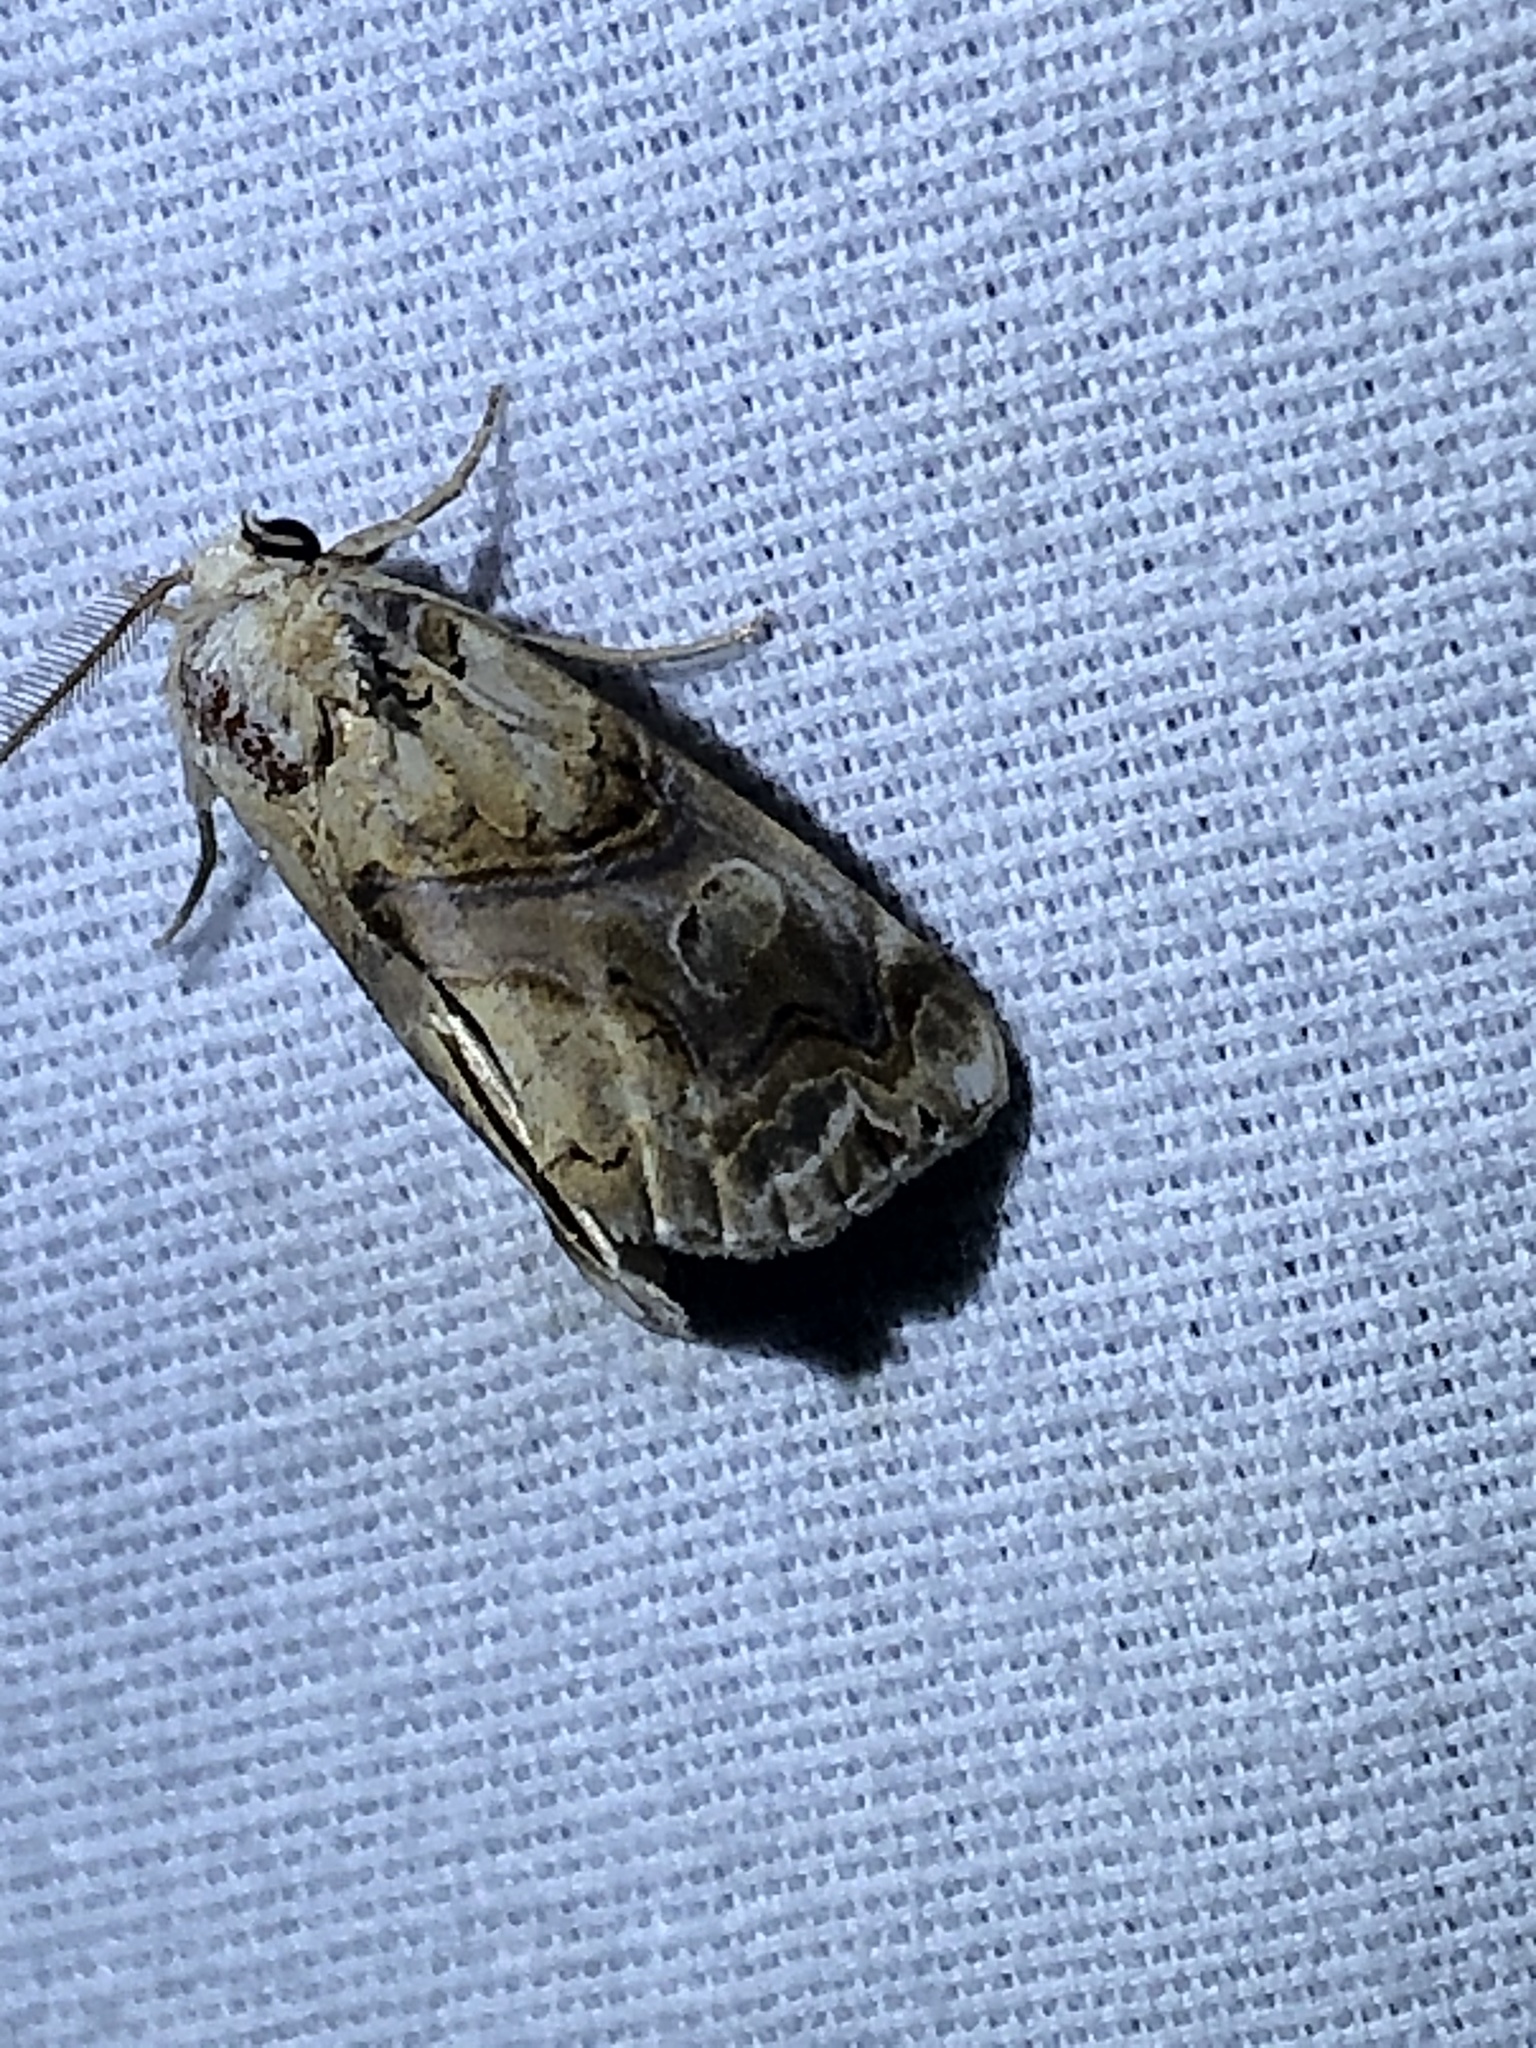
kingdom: Animalia
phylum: Arthropoda
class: Insecta
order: Lepidoptera
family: Erebidae
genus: Plusiodonta
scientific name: Plusiodonta compressipalpis
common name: Moonseed moth
